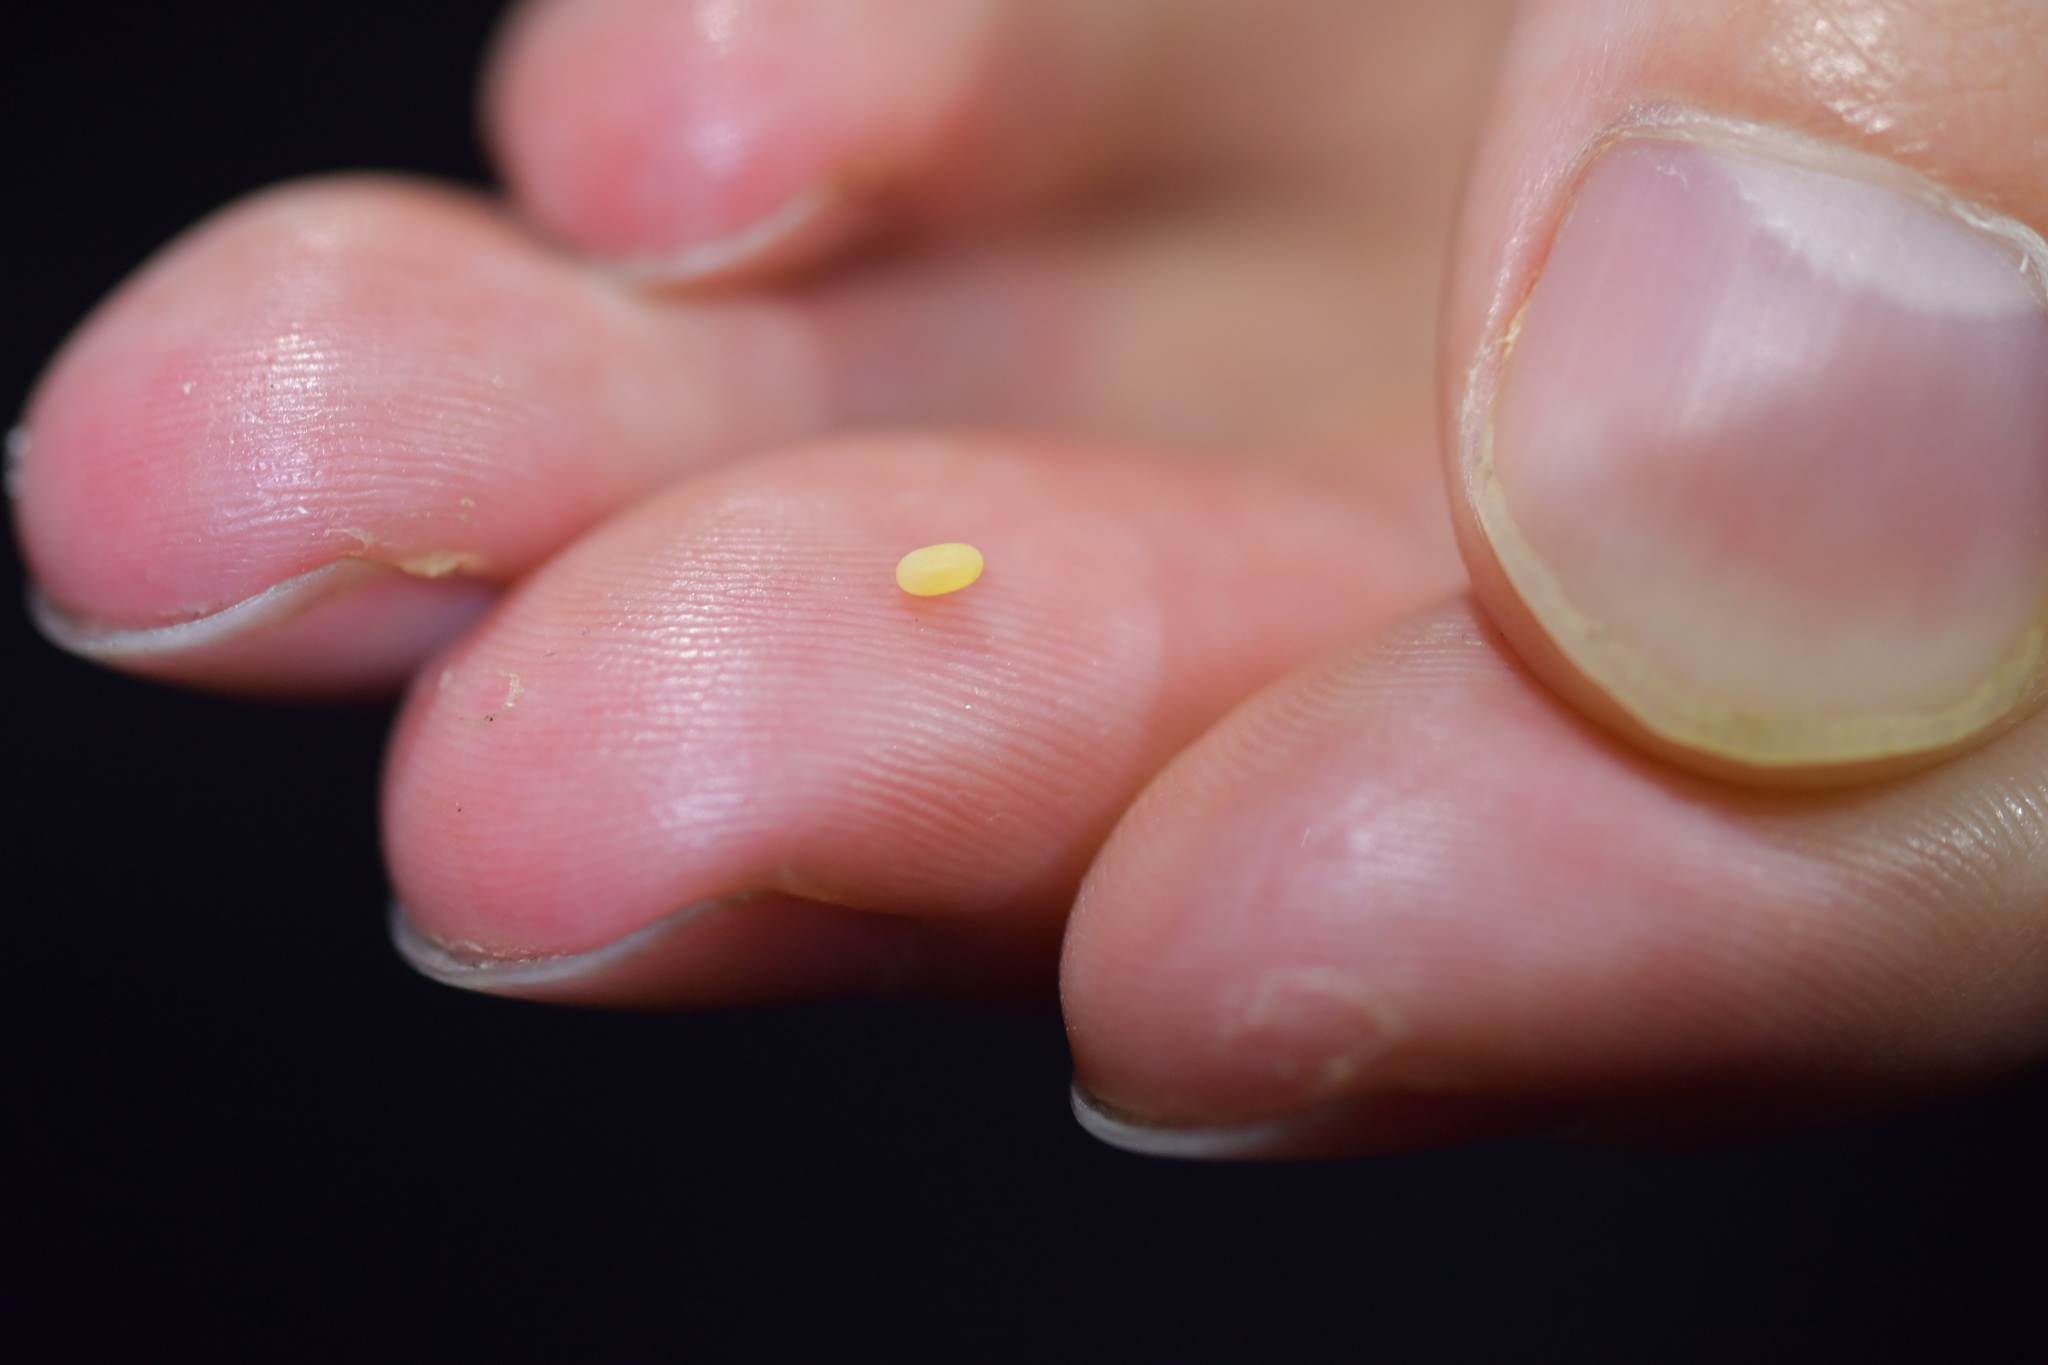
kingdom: Animalia
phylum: Arthropoda
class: Insecta
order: Coleoptera
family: Curculionidae
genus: Anagotus
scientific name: Anagotus fairburni
